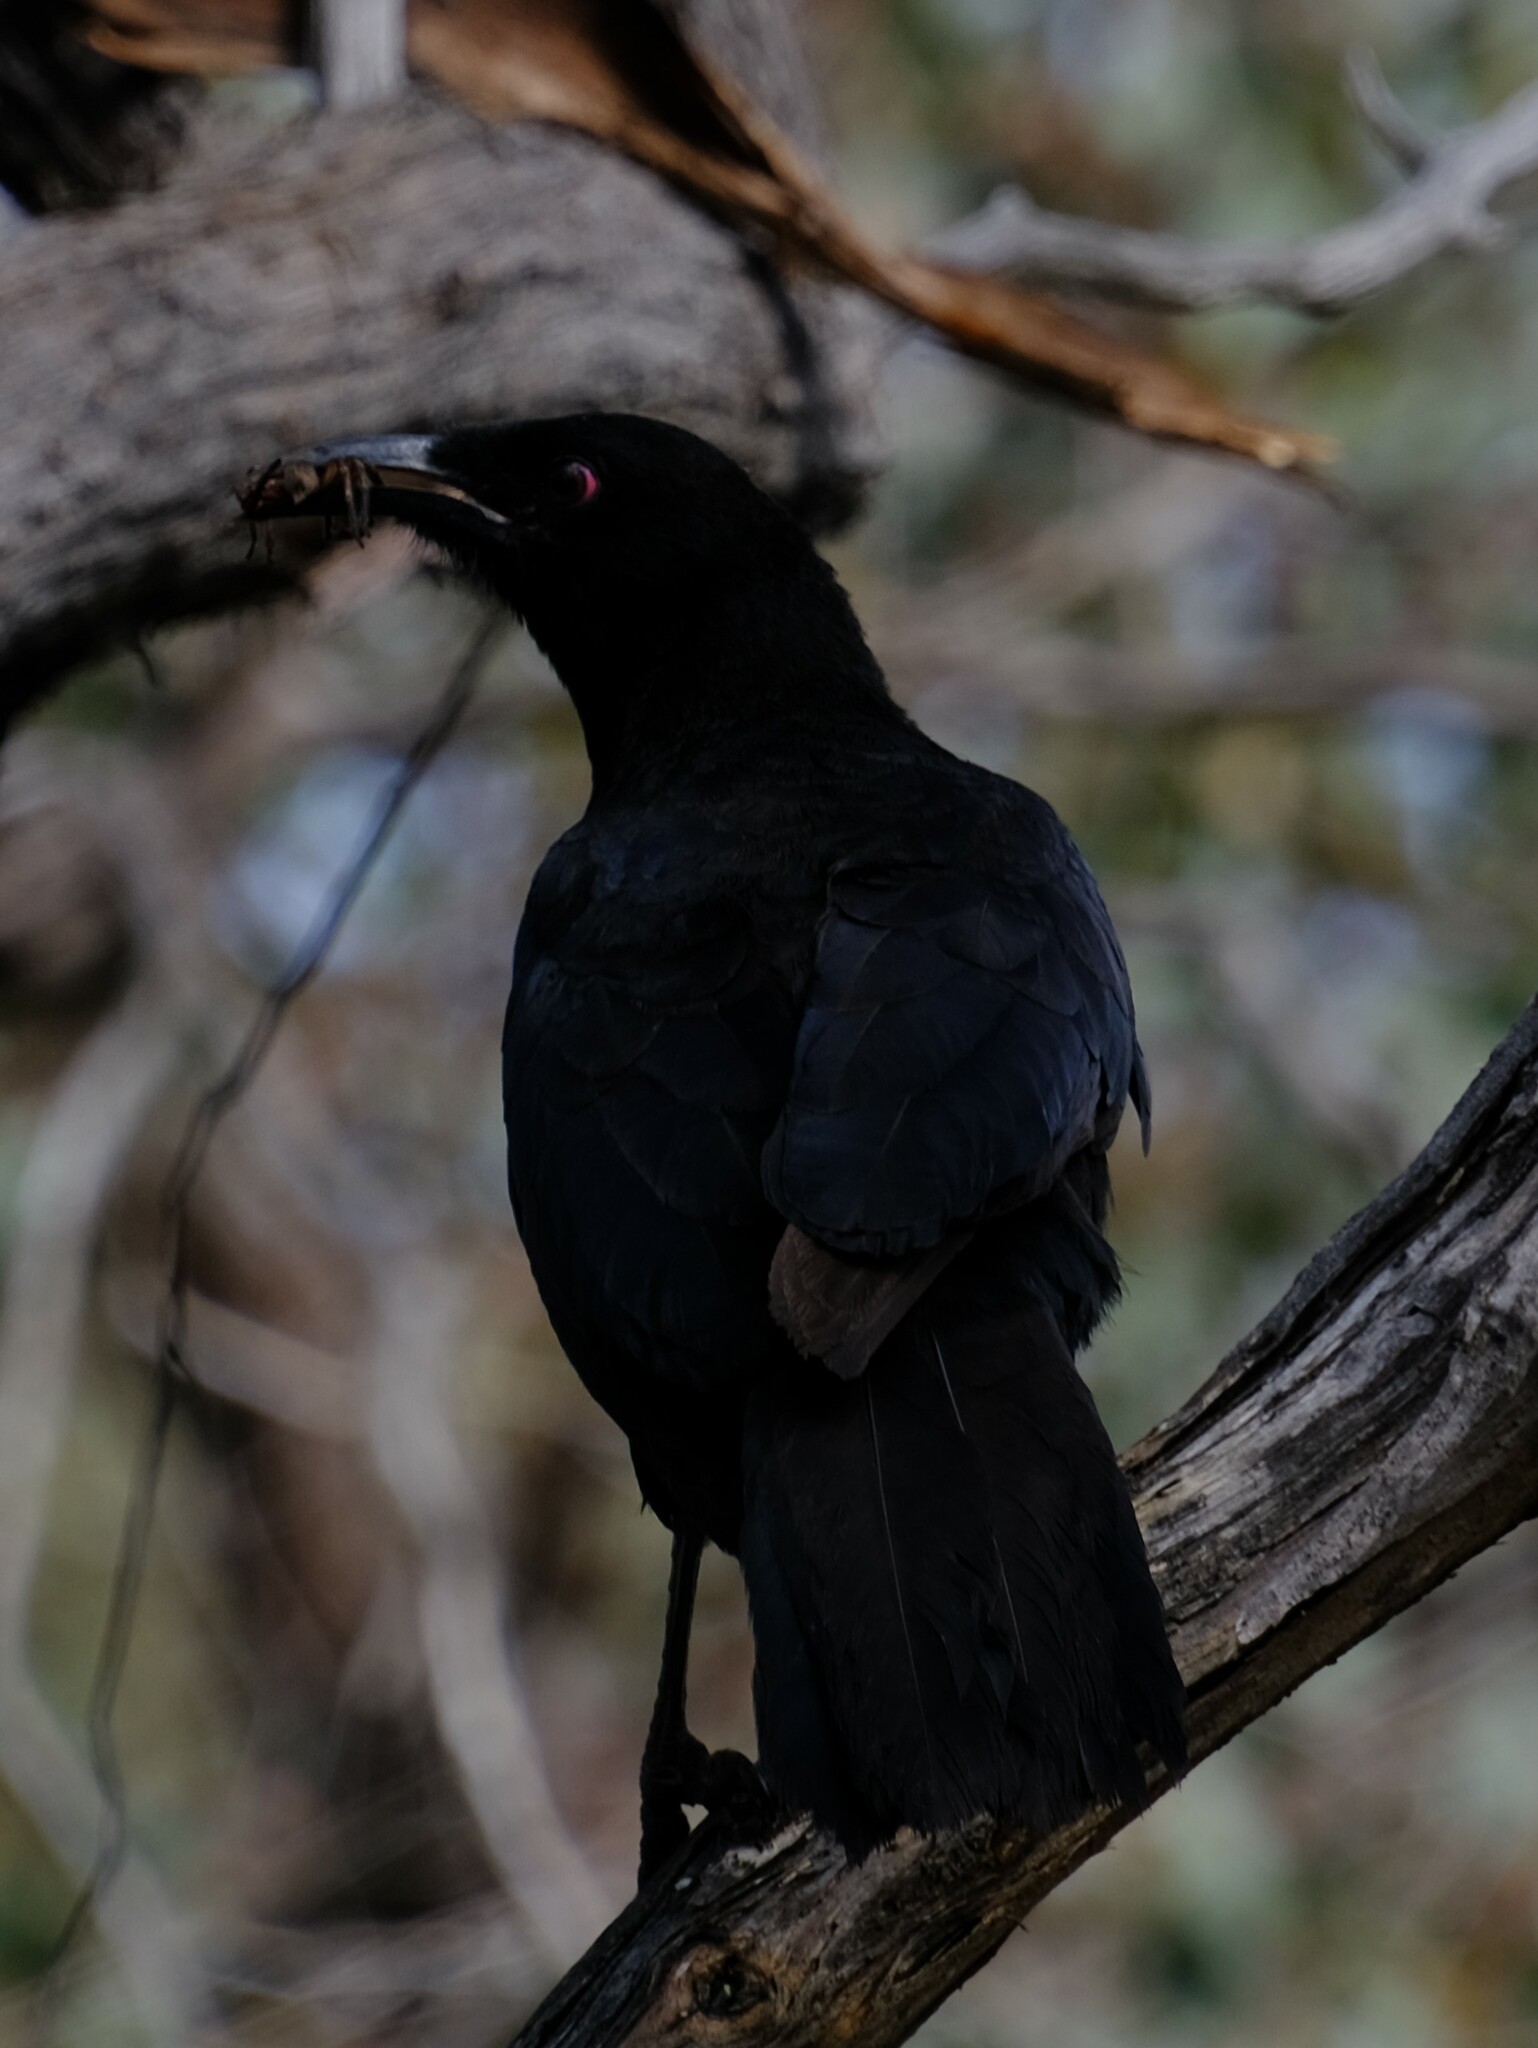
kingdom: Animalia
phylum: Chordata
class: Aves
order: Passeriformes
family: Corcoracidae
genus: Corcorax
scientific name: Corcorax melanoramphos
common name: White-winged chough
